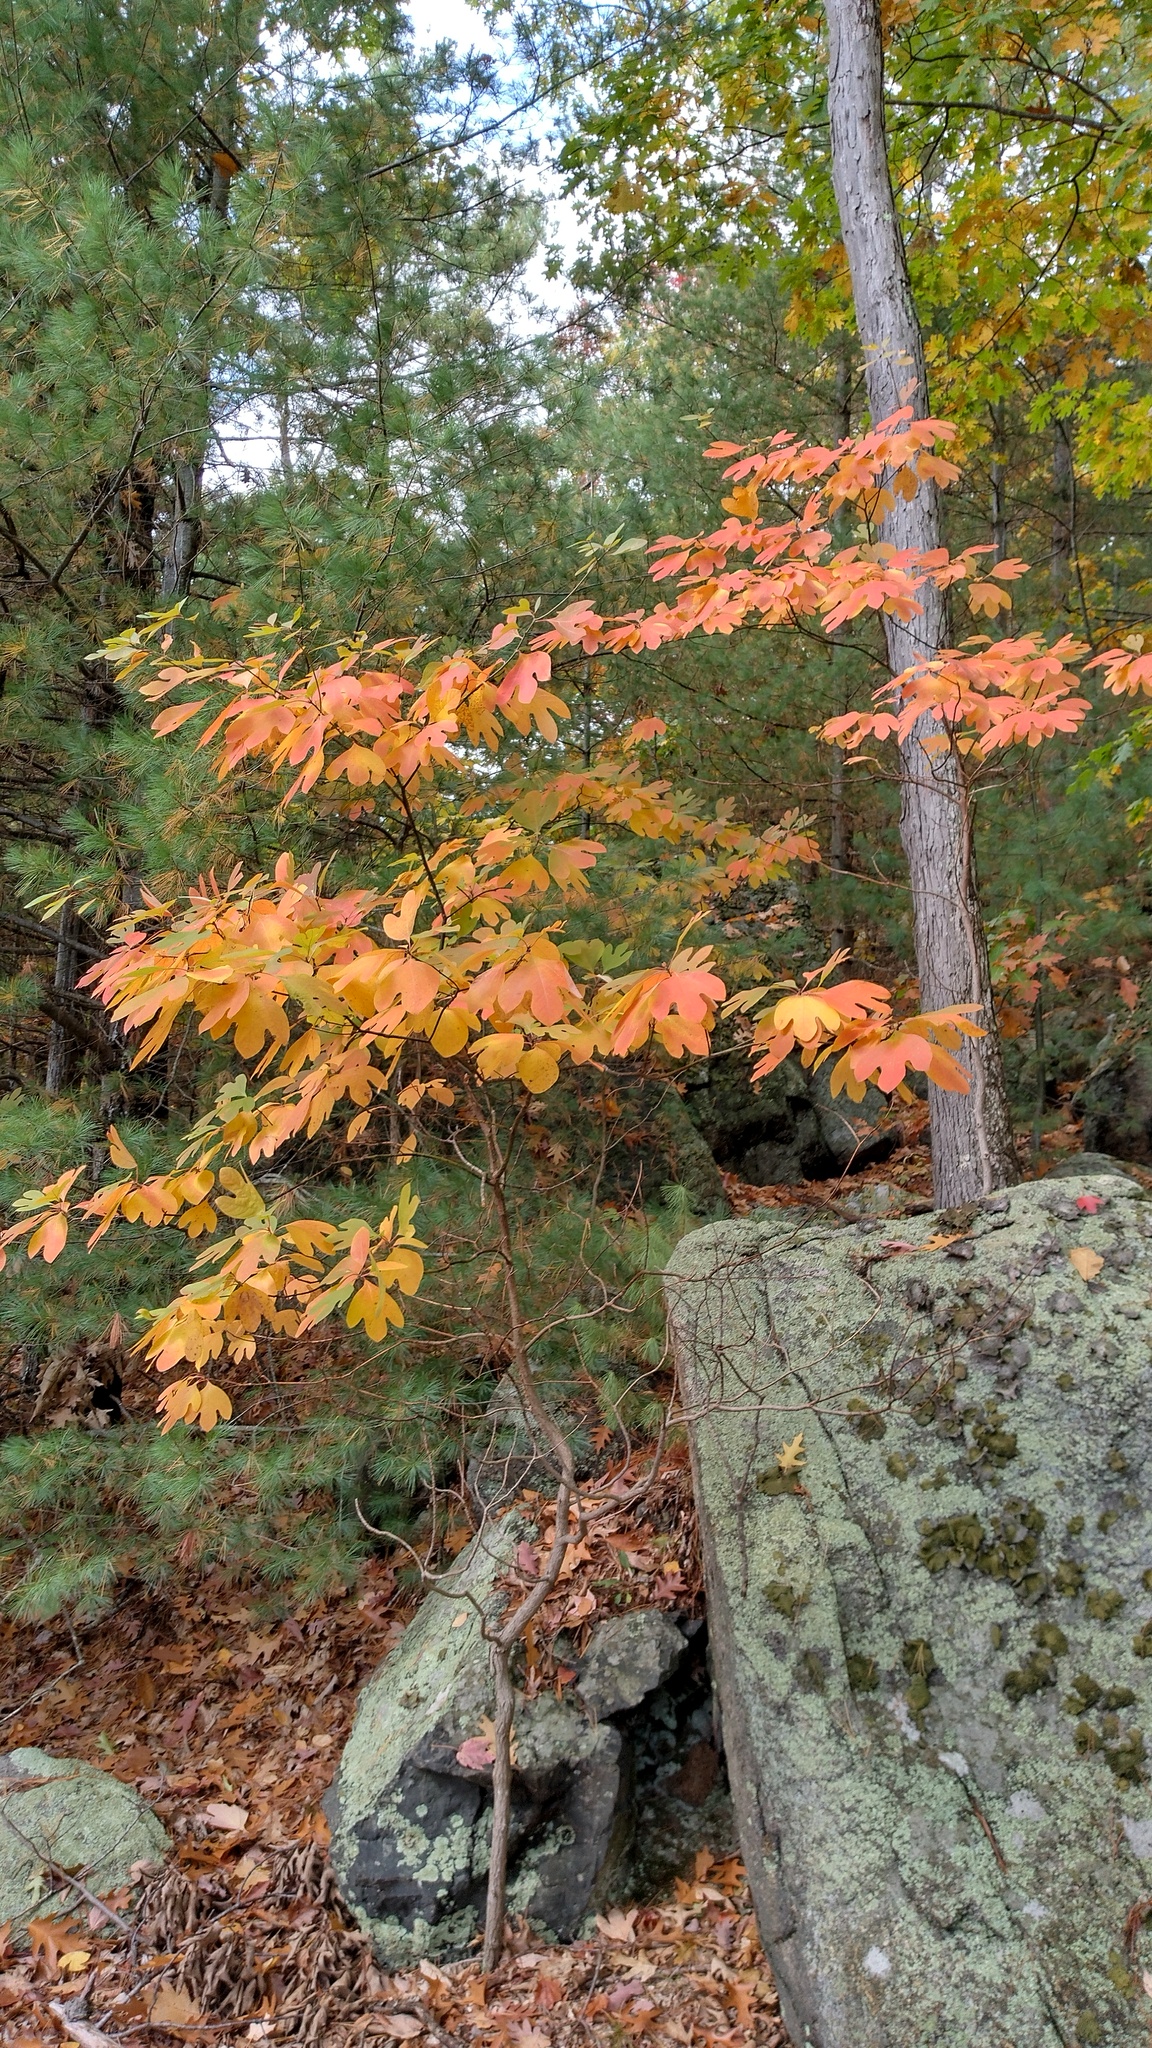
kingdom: Plantae
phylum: Tracheophyta
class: Magnoliopsida
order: Laurales
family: Lauraceae
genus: Sassafras
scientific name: Sassafras albidum
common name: Sassafras
